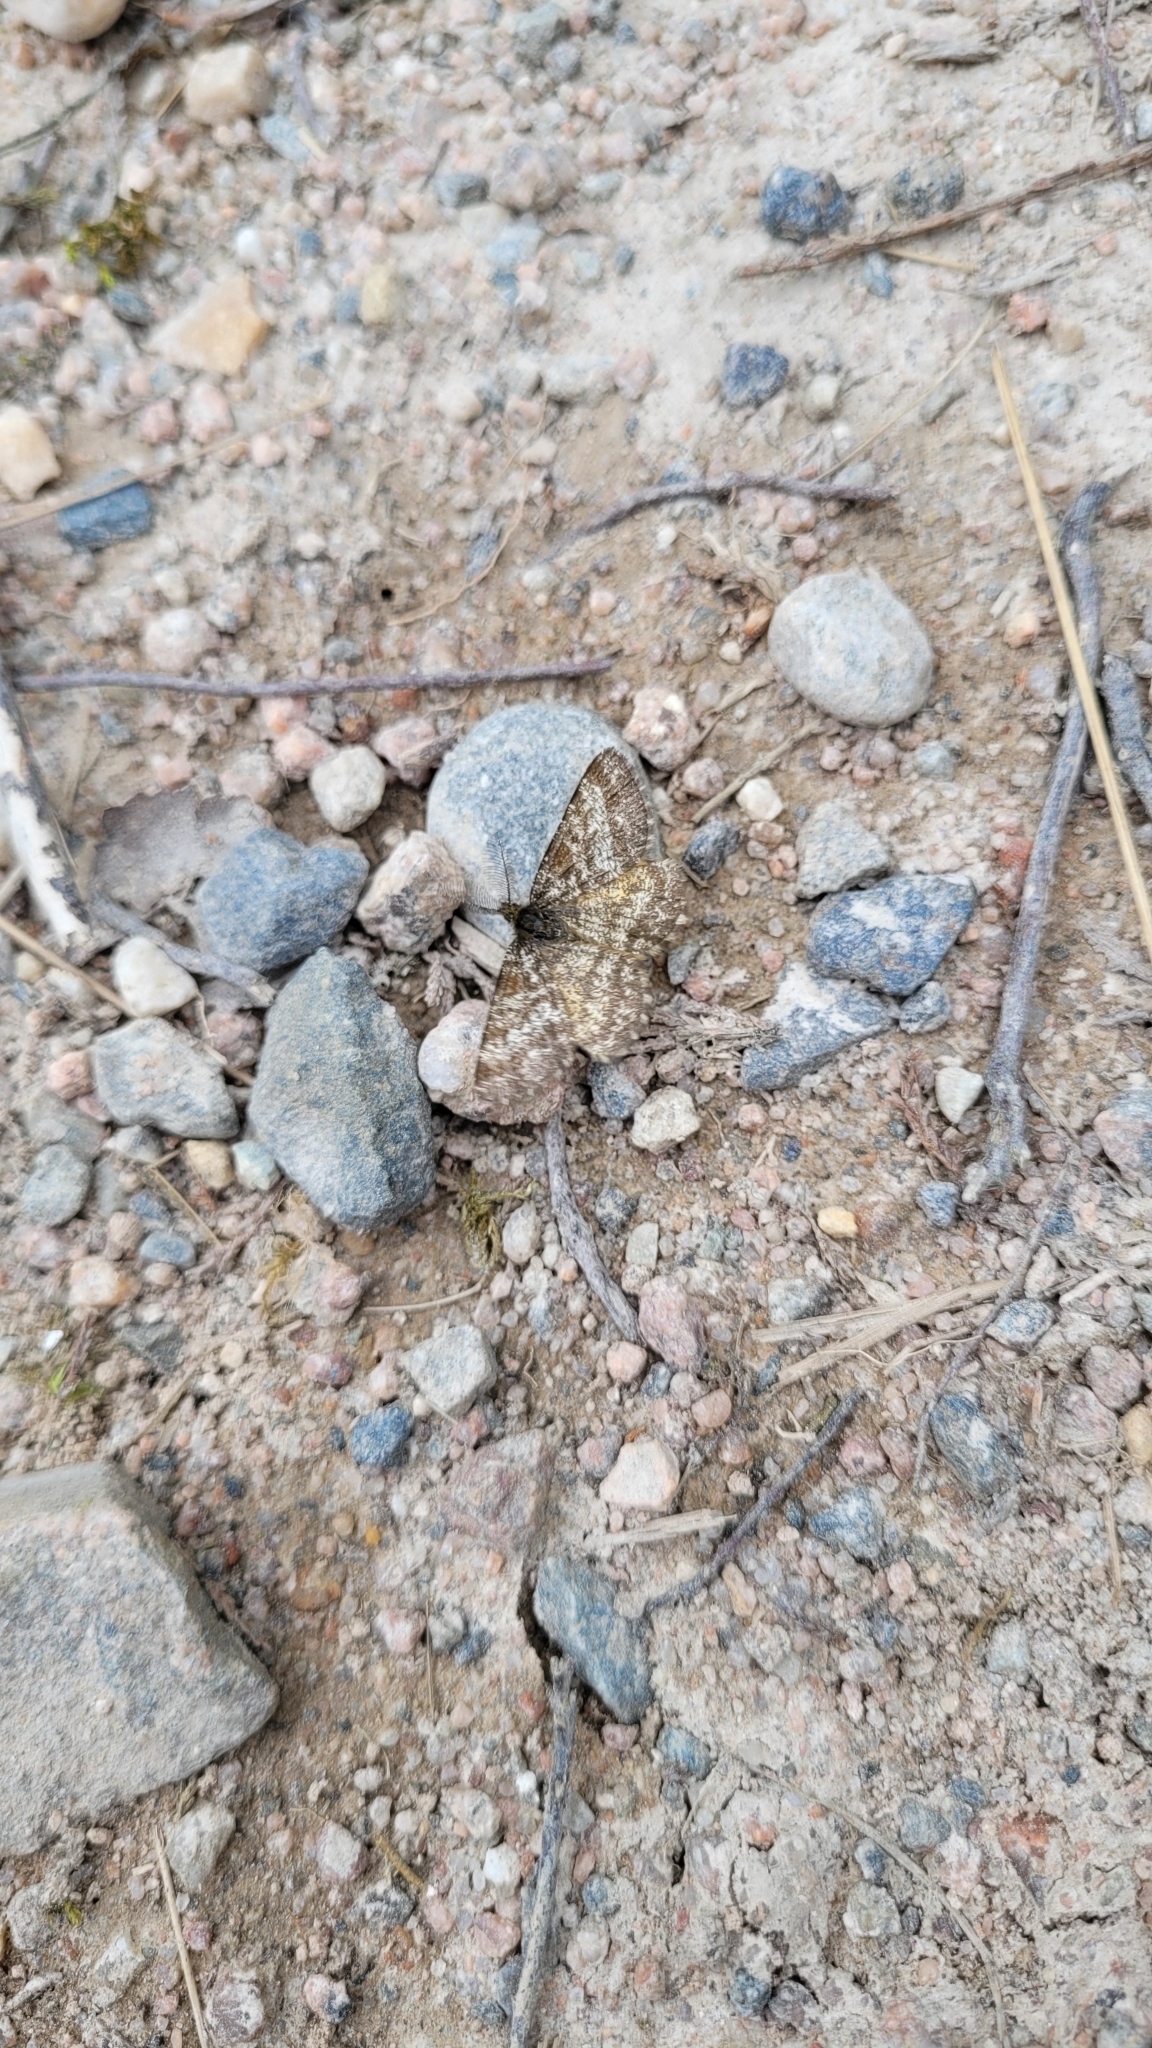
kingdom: Animalia
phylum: Arthropoda
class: Insecta
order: Lepidoptera
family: Geometridae
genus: Ematurga
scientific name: Ematurga atomaria
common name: Common heath
